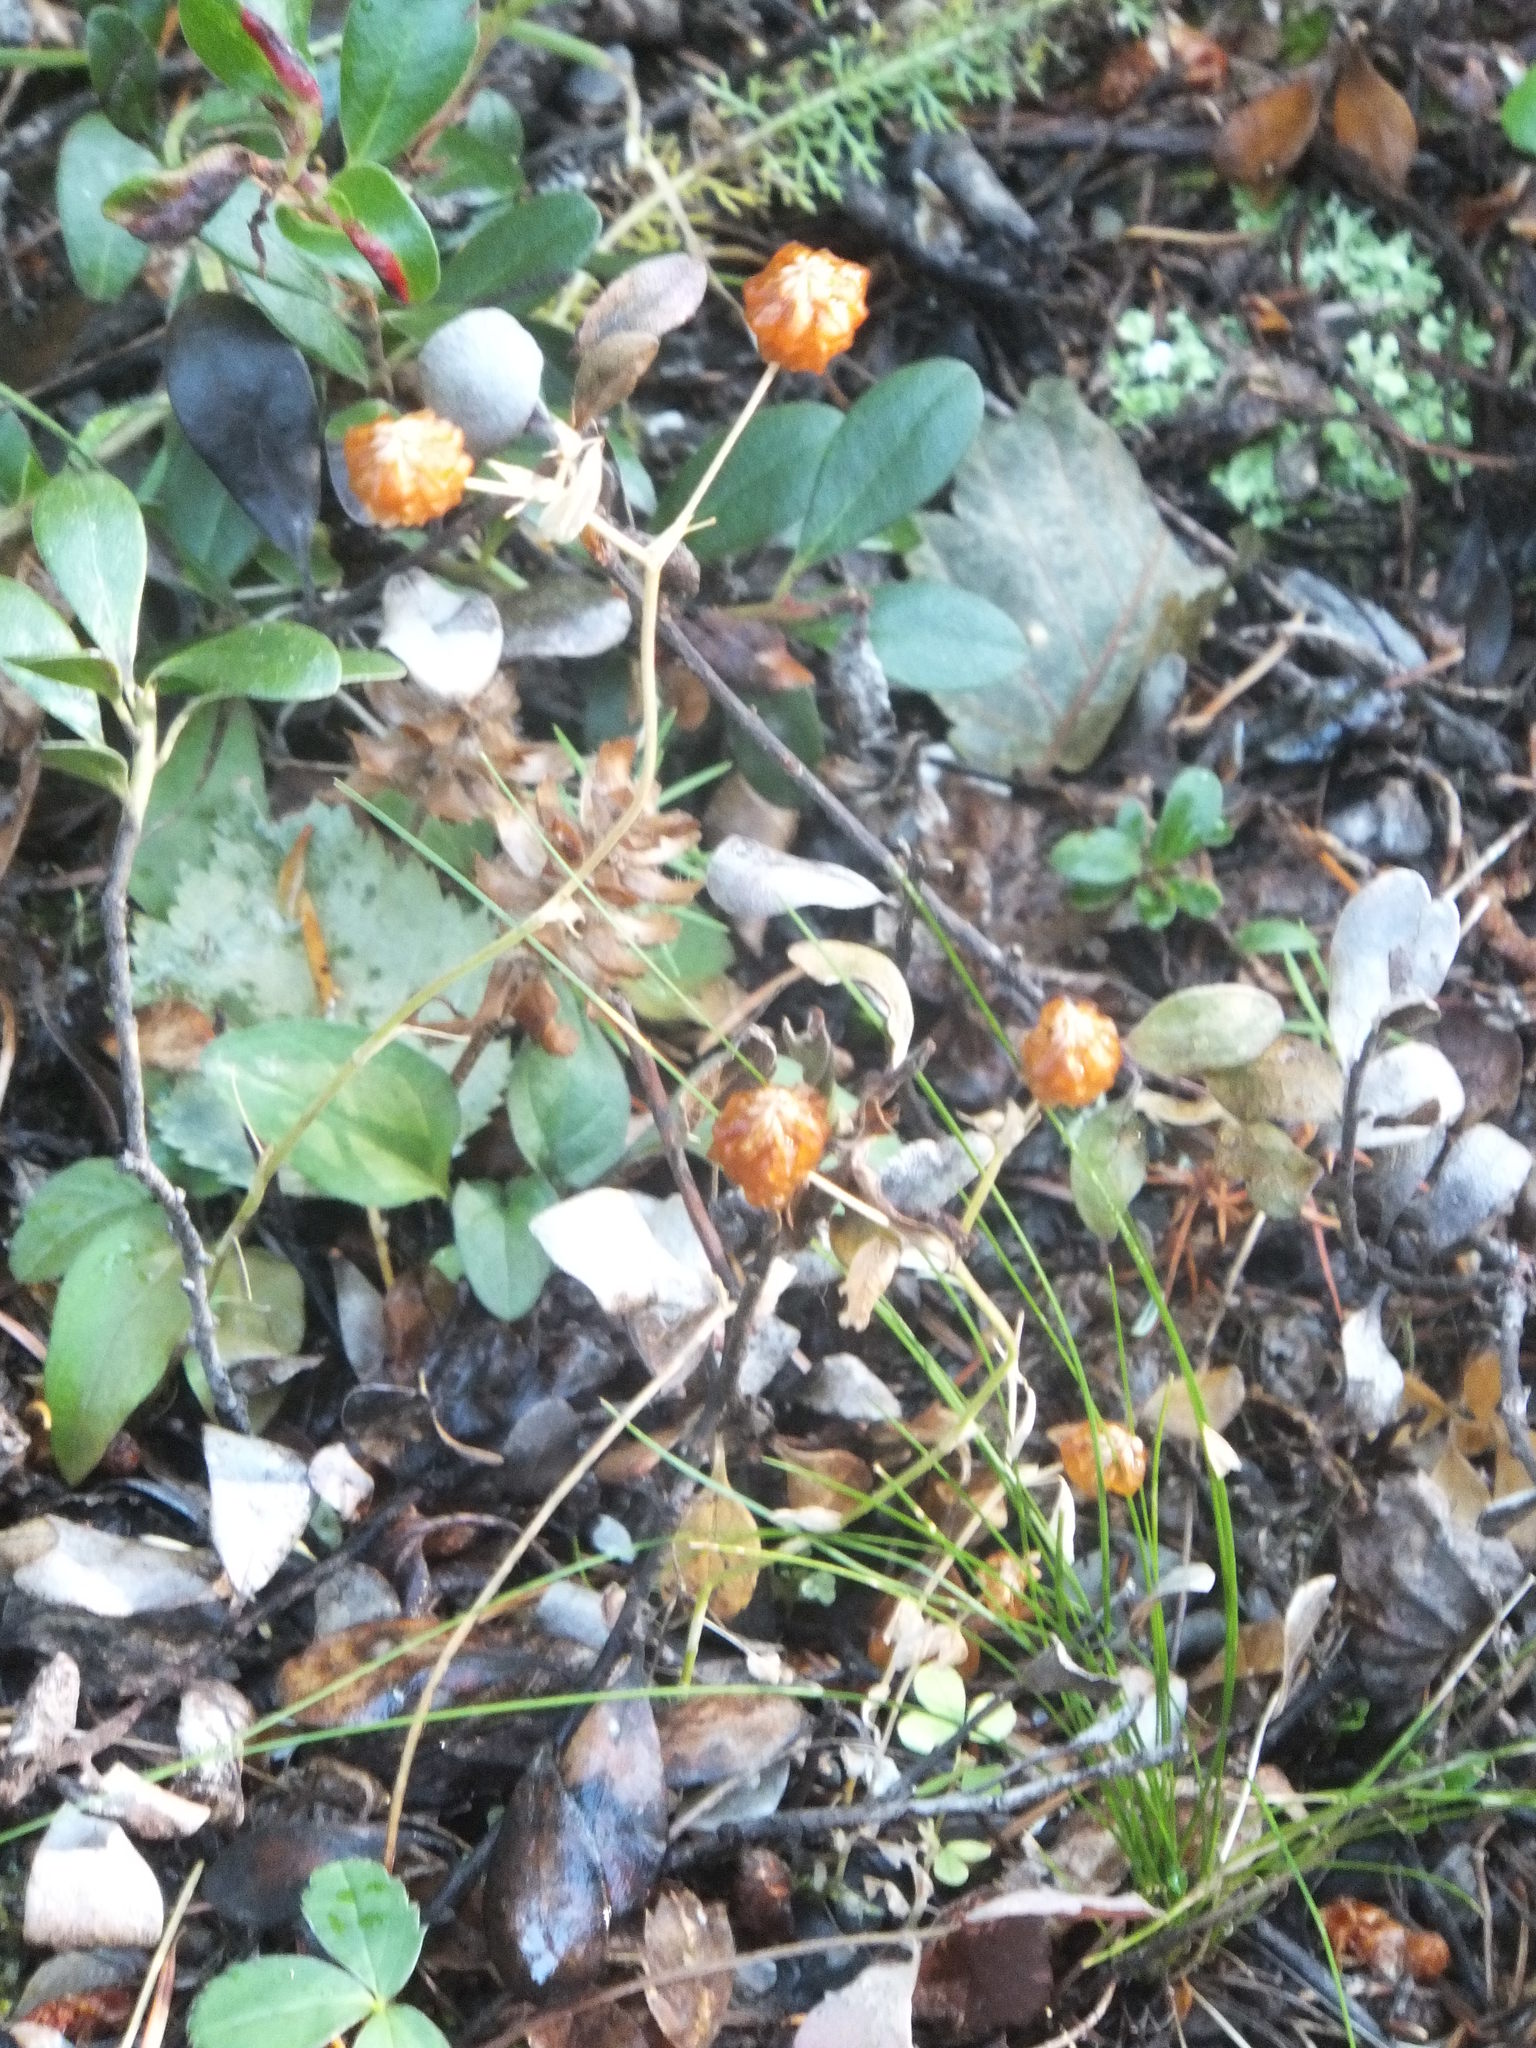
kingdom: Plantae
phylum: Tracheophyta
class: Magnoliopsida
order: Fabales
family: Fabaceae
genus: Trifolium
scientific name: Trifolium aureum
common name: Golden clover
